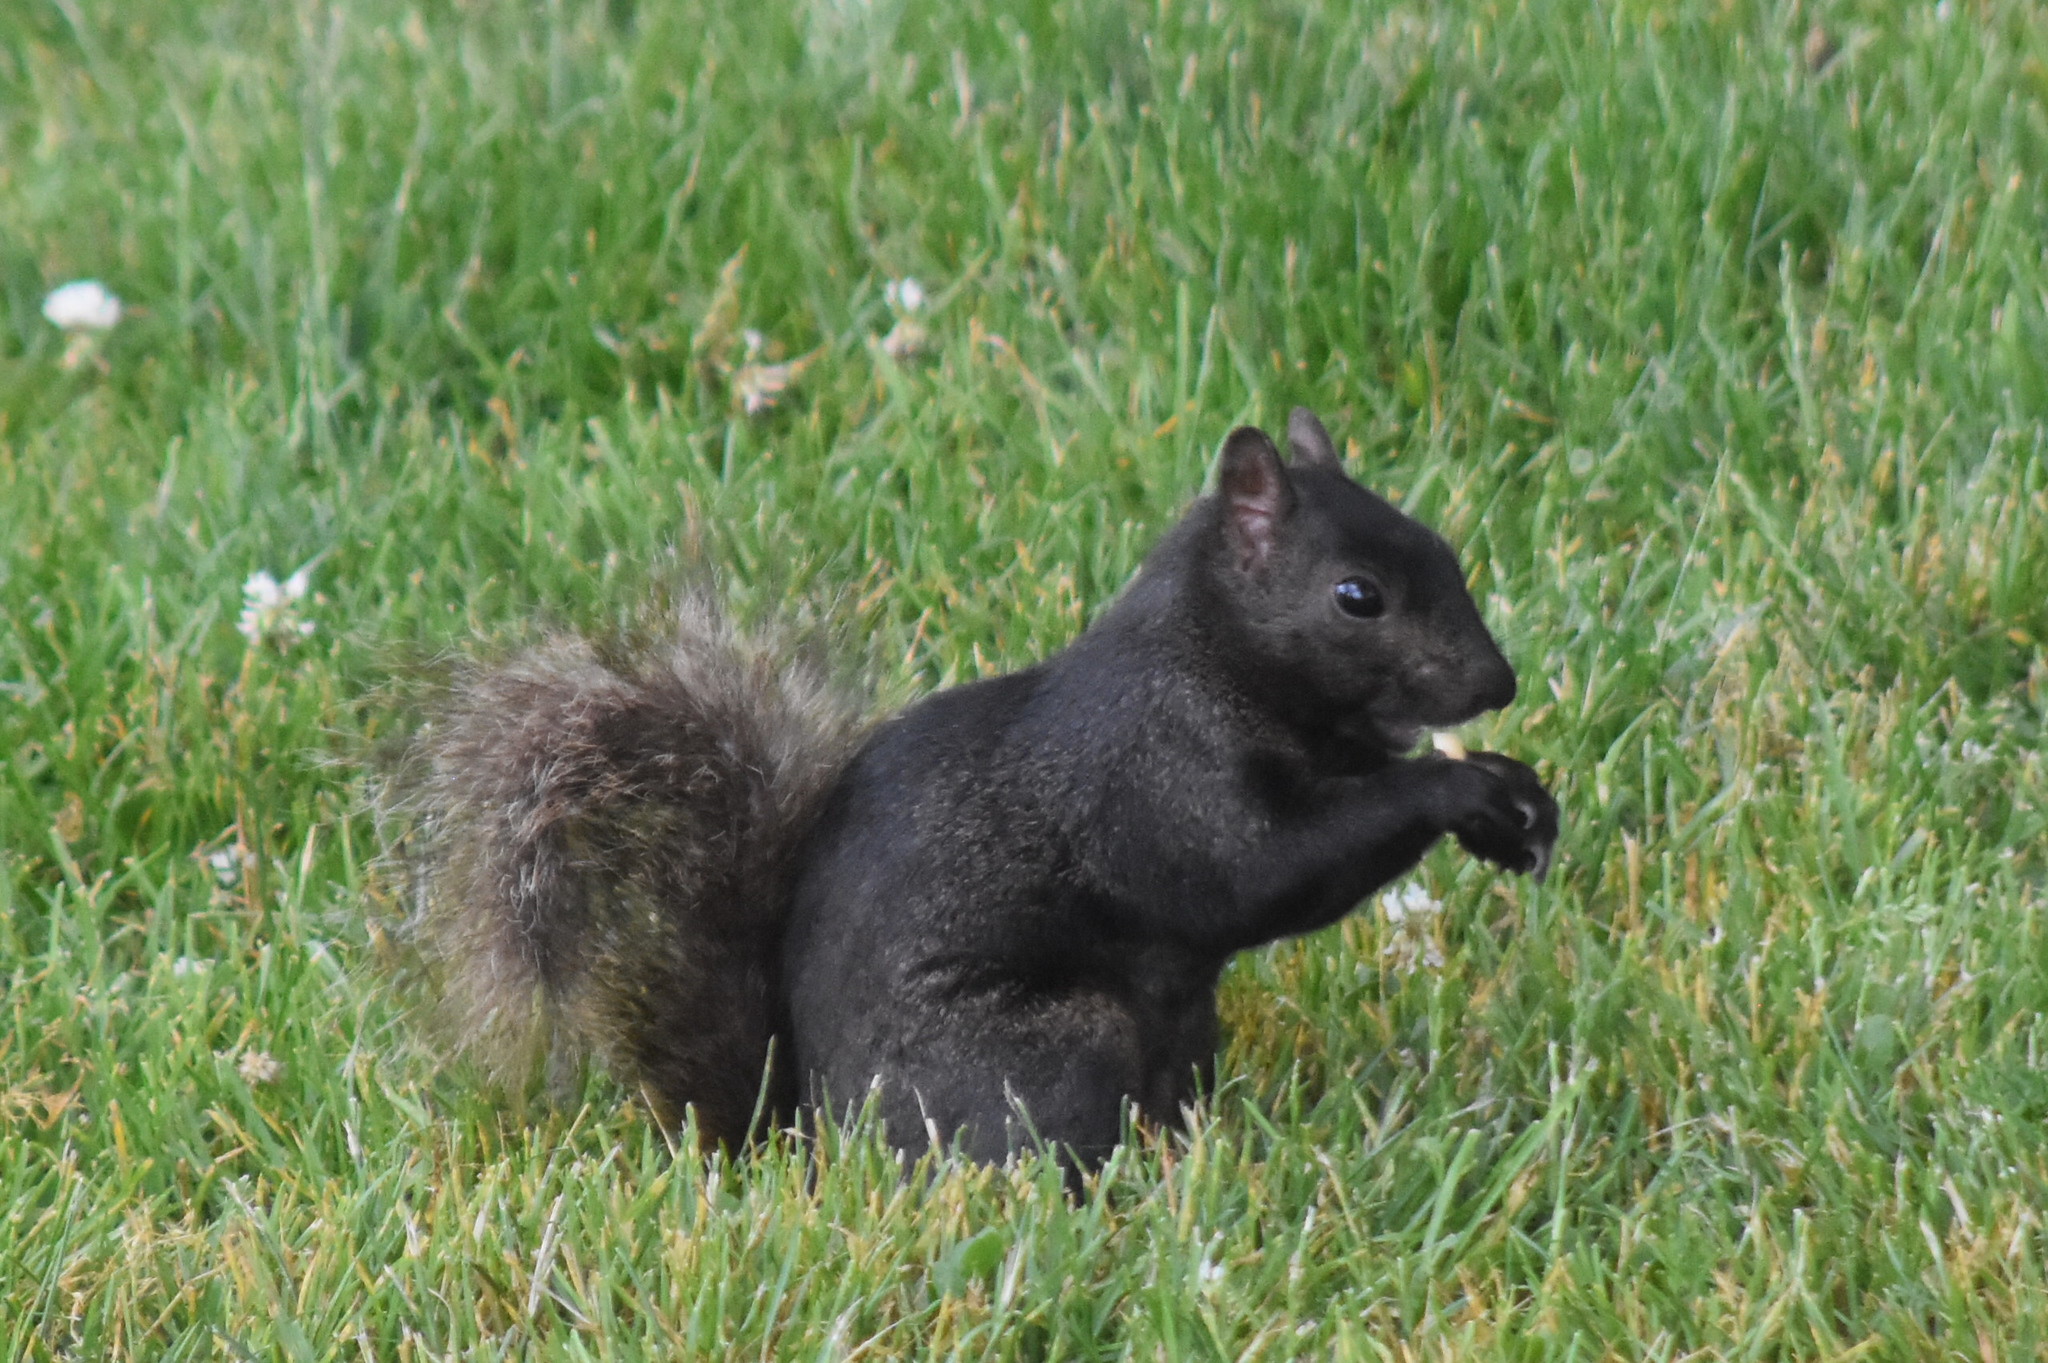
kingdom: Animalia
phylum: Chordata
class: Mammalia
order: Rodentia
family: Sciuridae
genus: Sciurus
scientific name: Sciurus carolinensis
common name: Eastern gray squirrel
